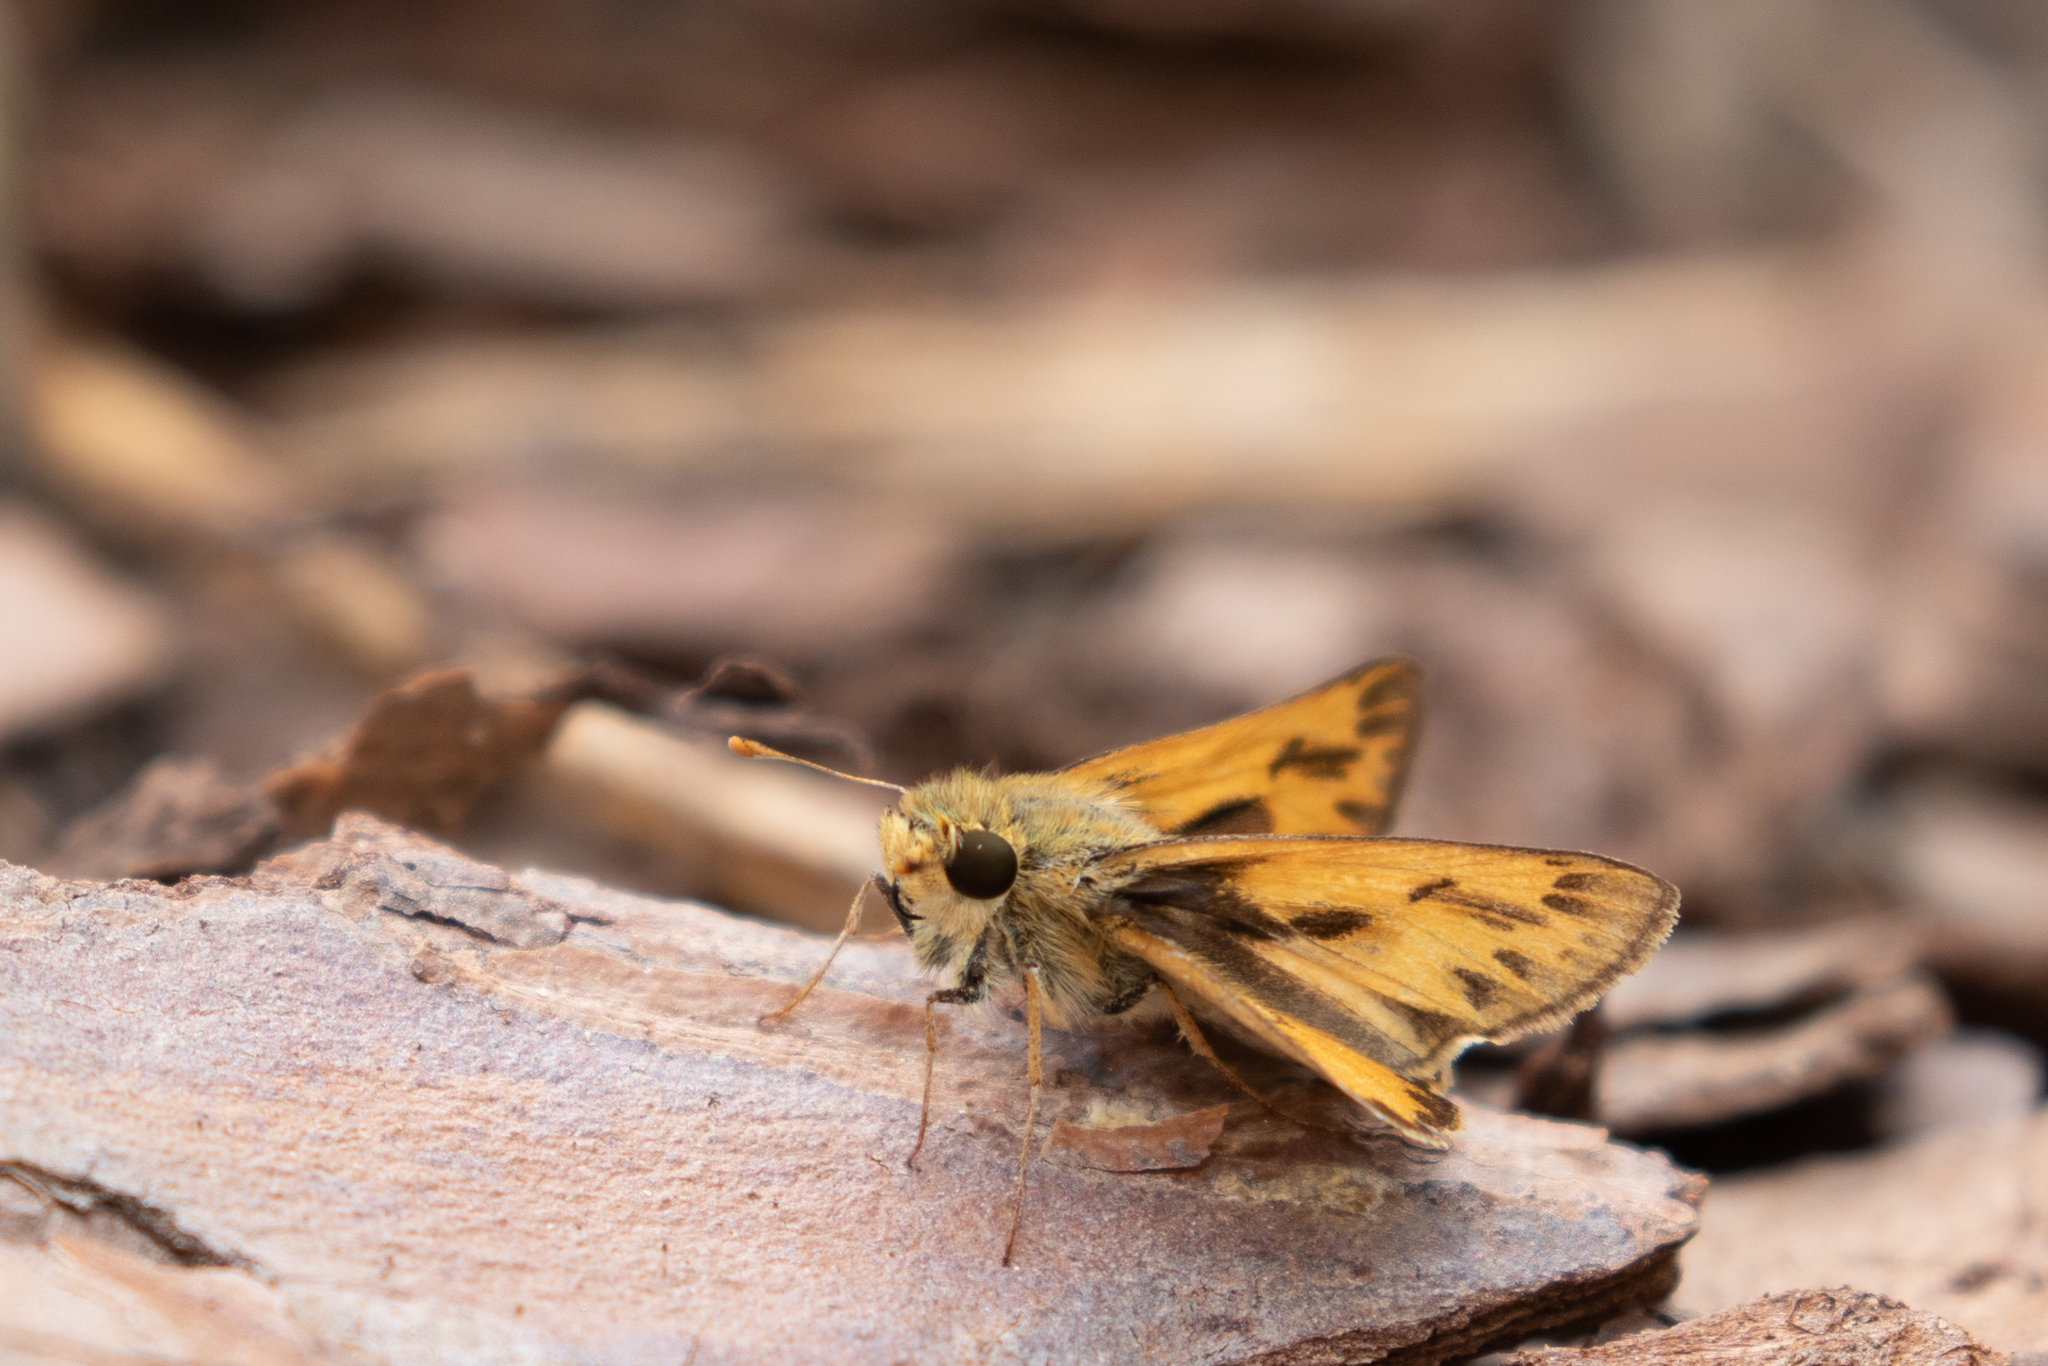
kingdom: Animalia
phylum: Arthropoda
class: Insecta
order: Lepidoptera
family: Hesperiidae
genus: Hylephila
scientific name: Hylephila phyleus
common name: Fiery skipper
